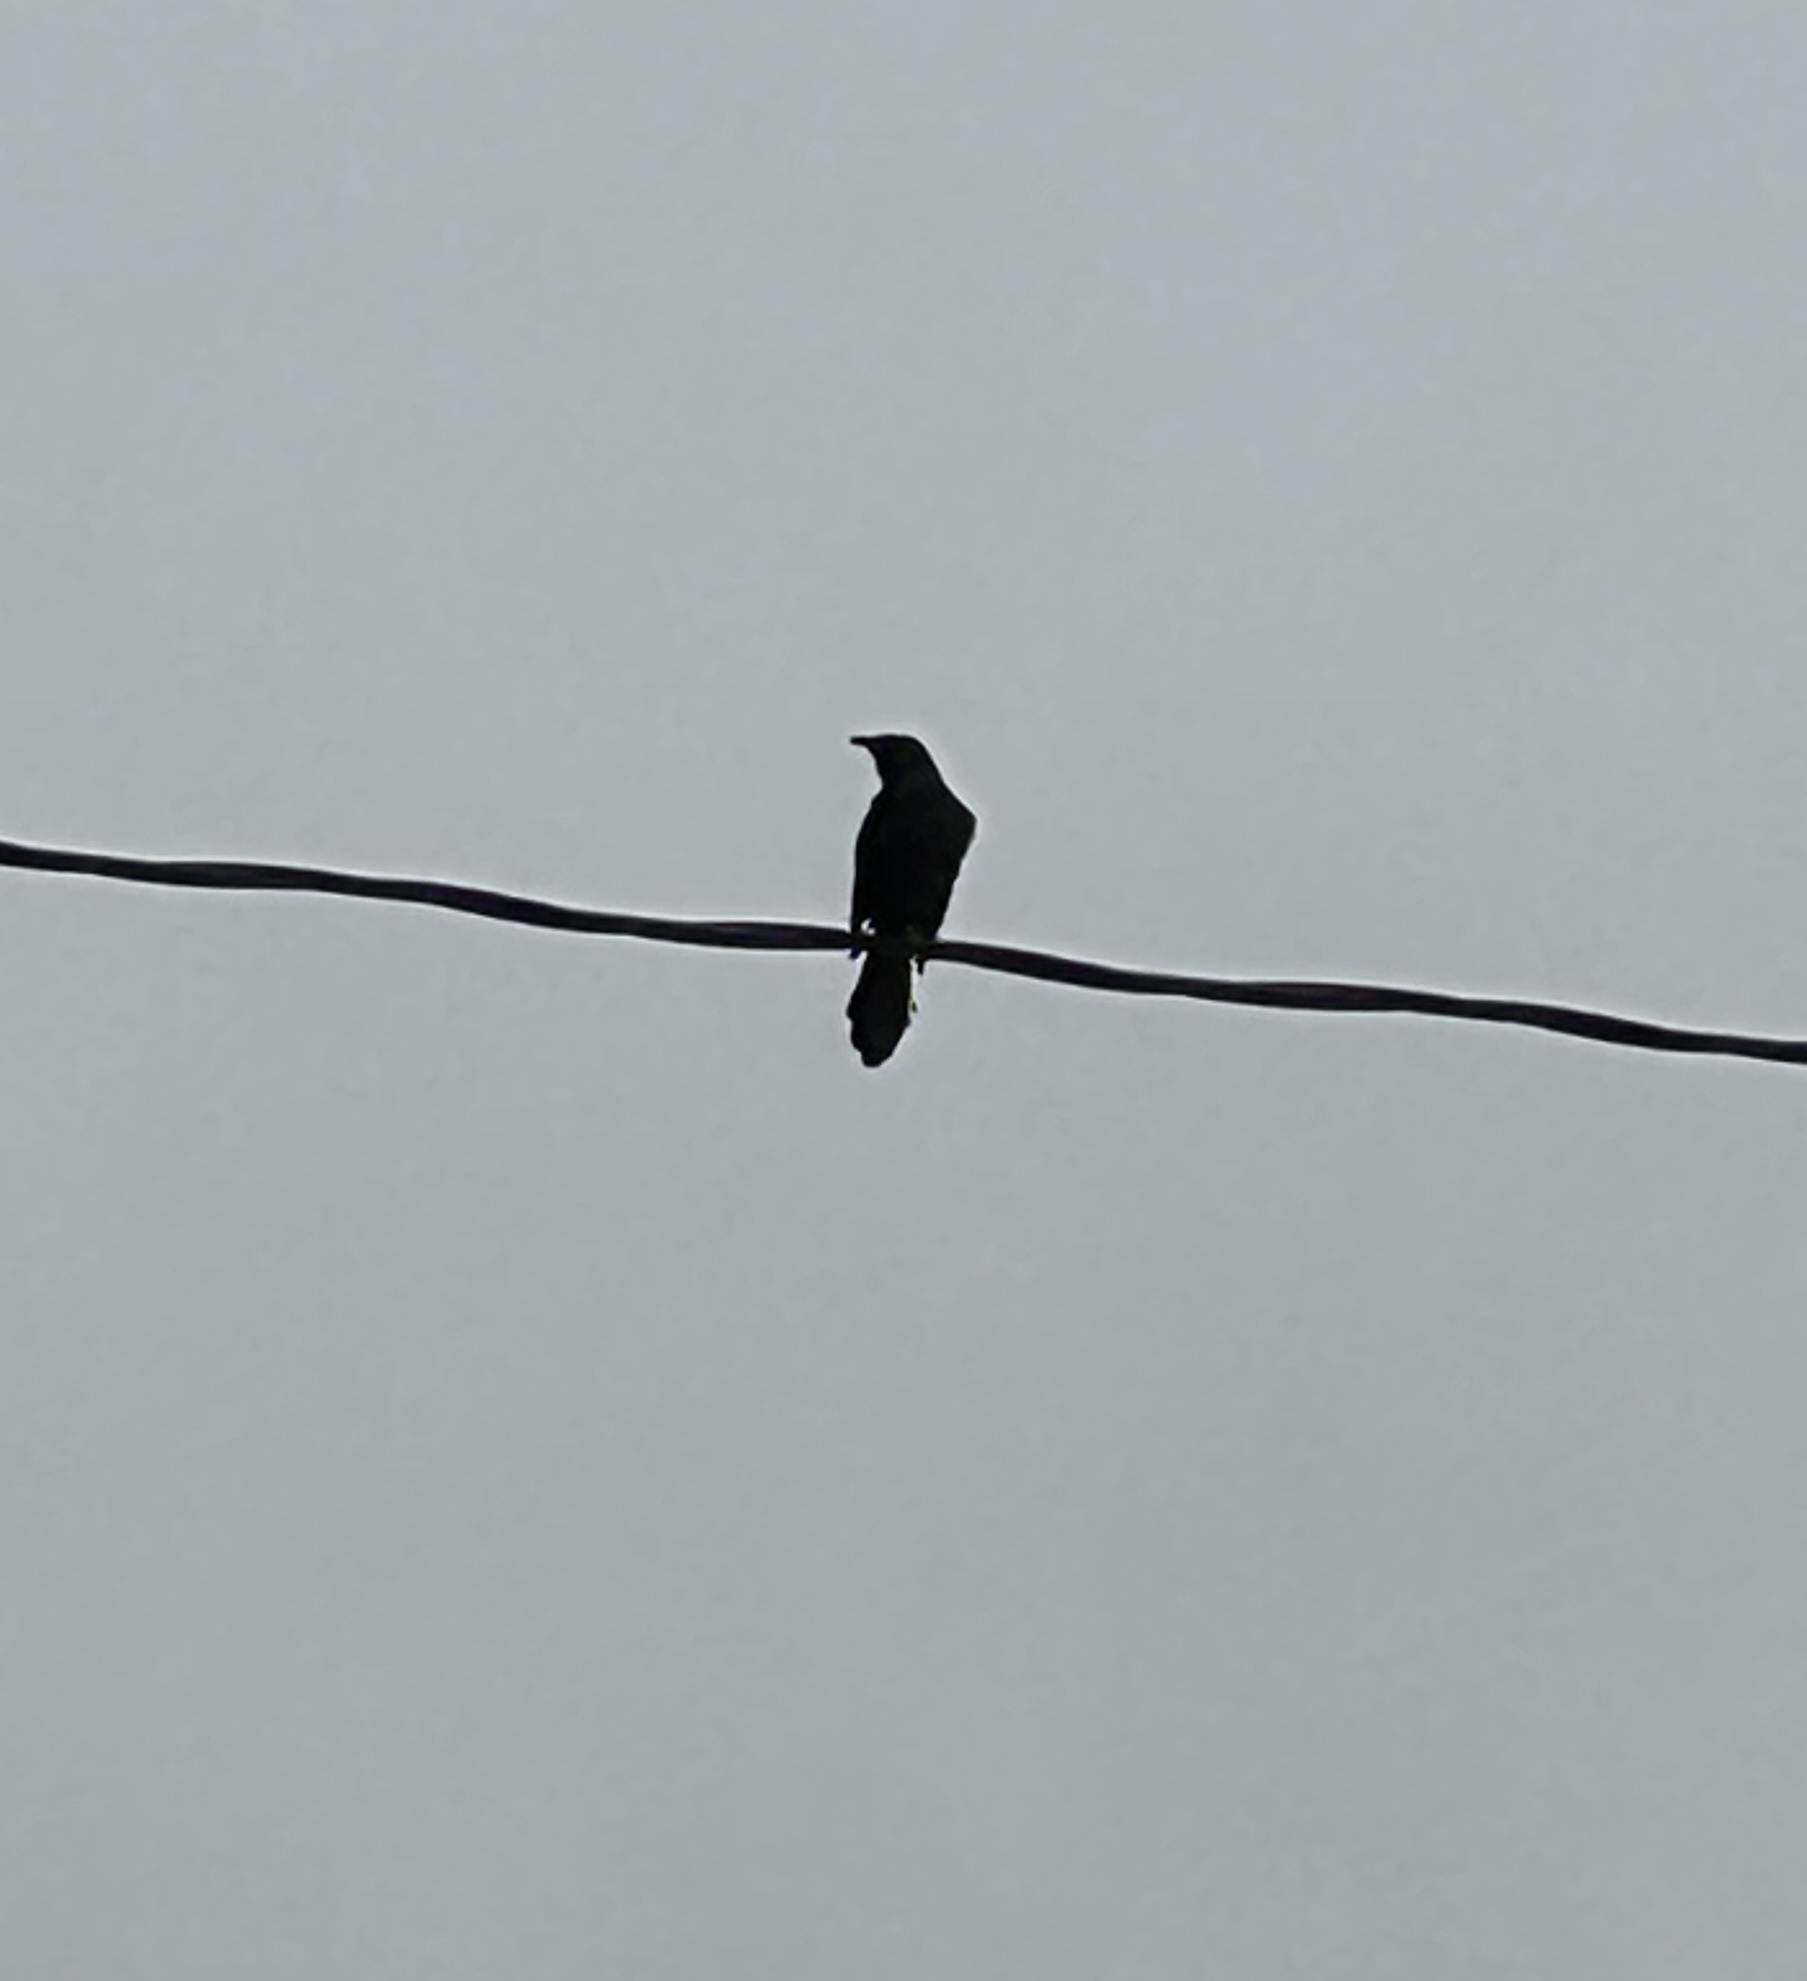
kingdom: Animalia
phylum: Chordata
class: Aves
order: Passeriformes
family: Icteridae
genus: Quiscalus
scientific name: Quiscalus quiscula
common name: Common grackle
